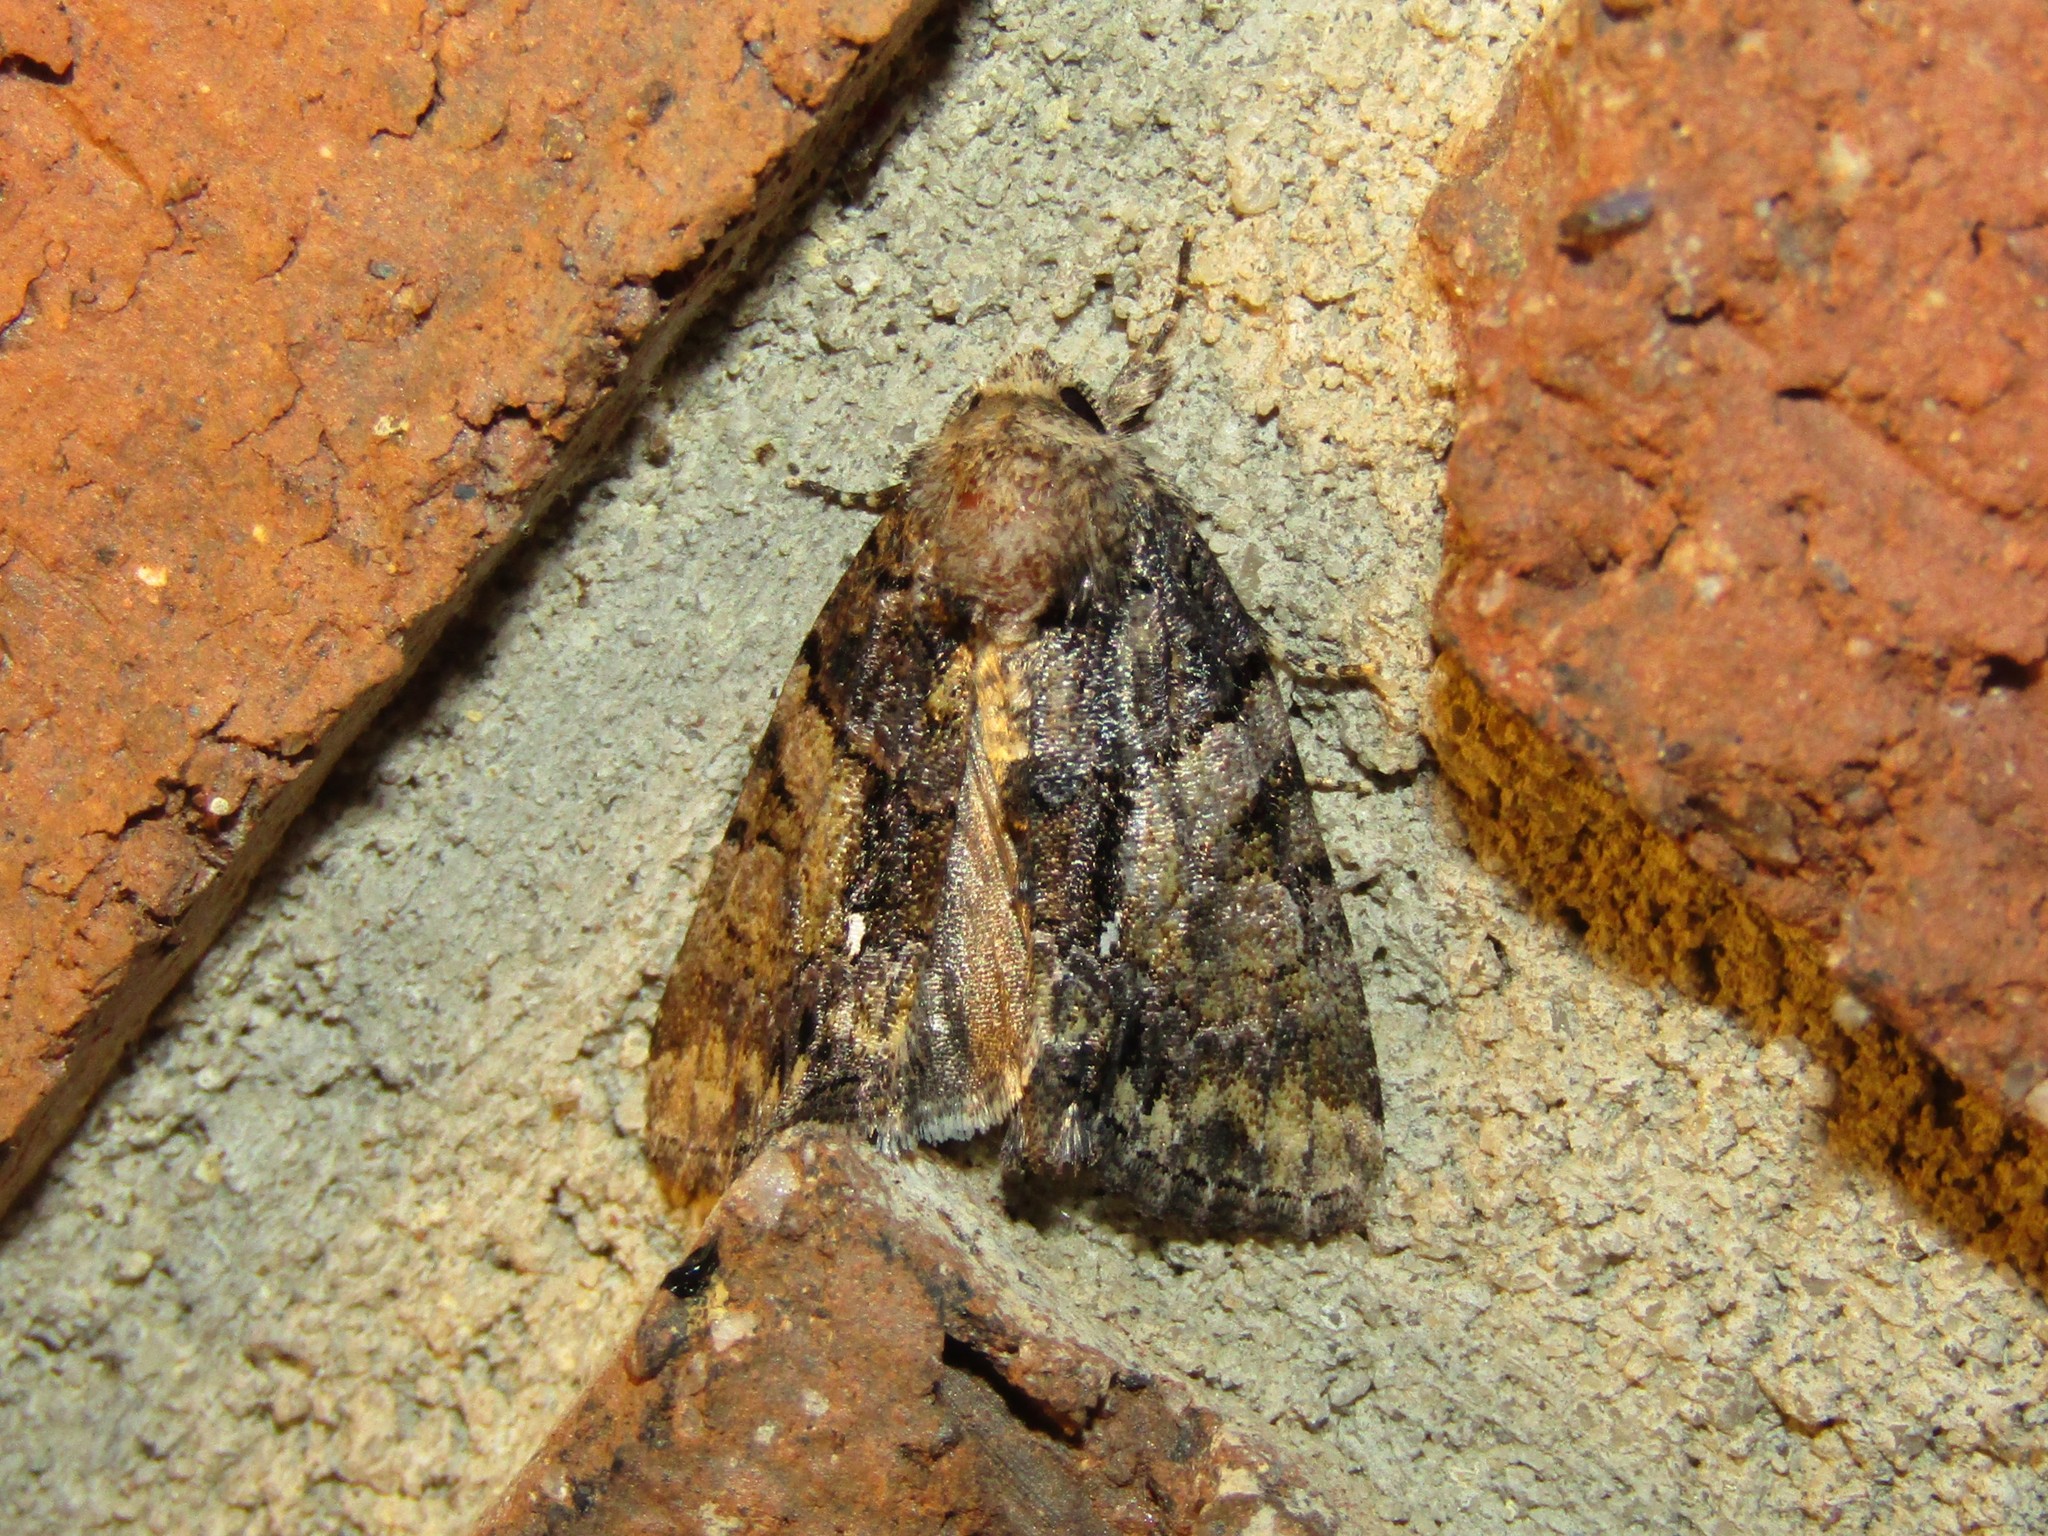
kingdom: Animalia
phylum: Arthropoda
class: Insecta
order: Lepidoptera
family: Noctuidae
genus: Chytonix
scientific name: Chytonix palliatricula
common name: Cloaked marvel
